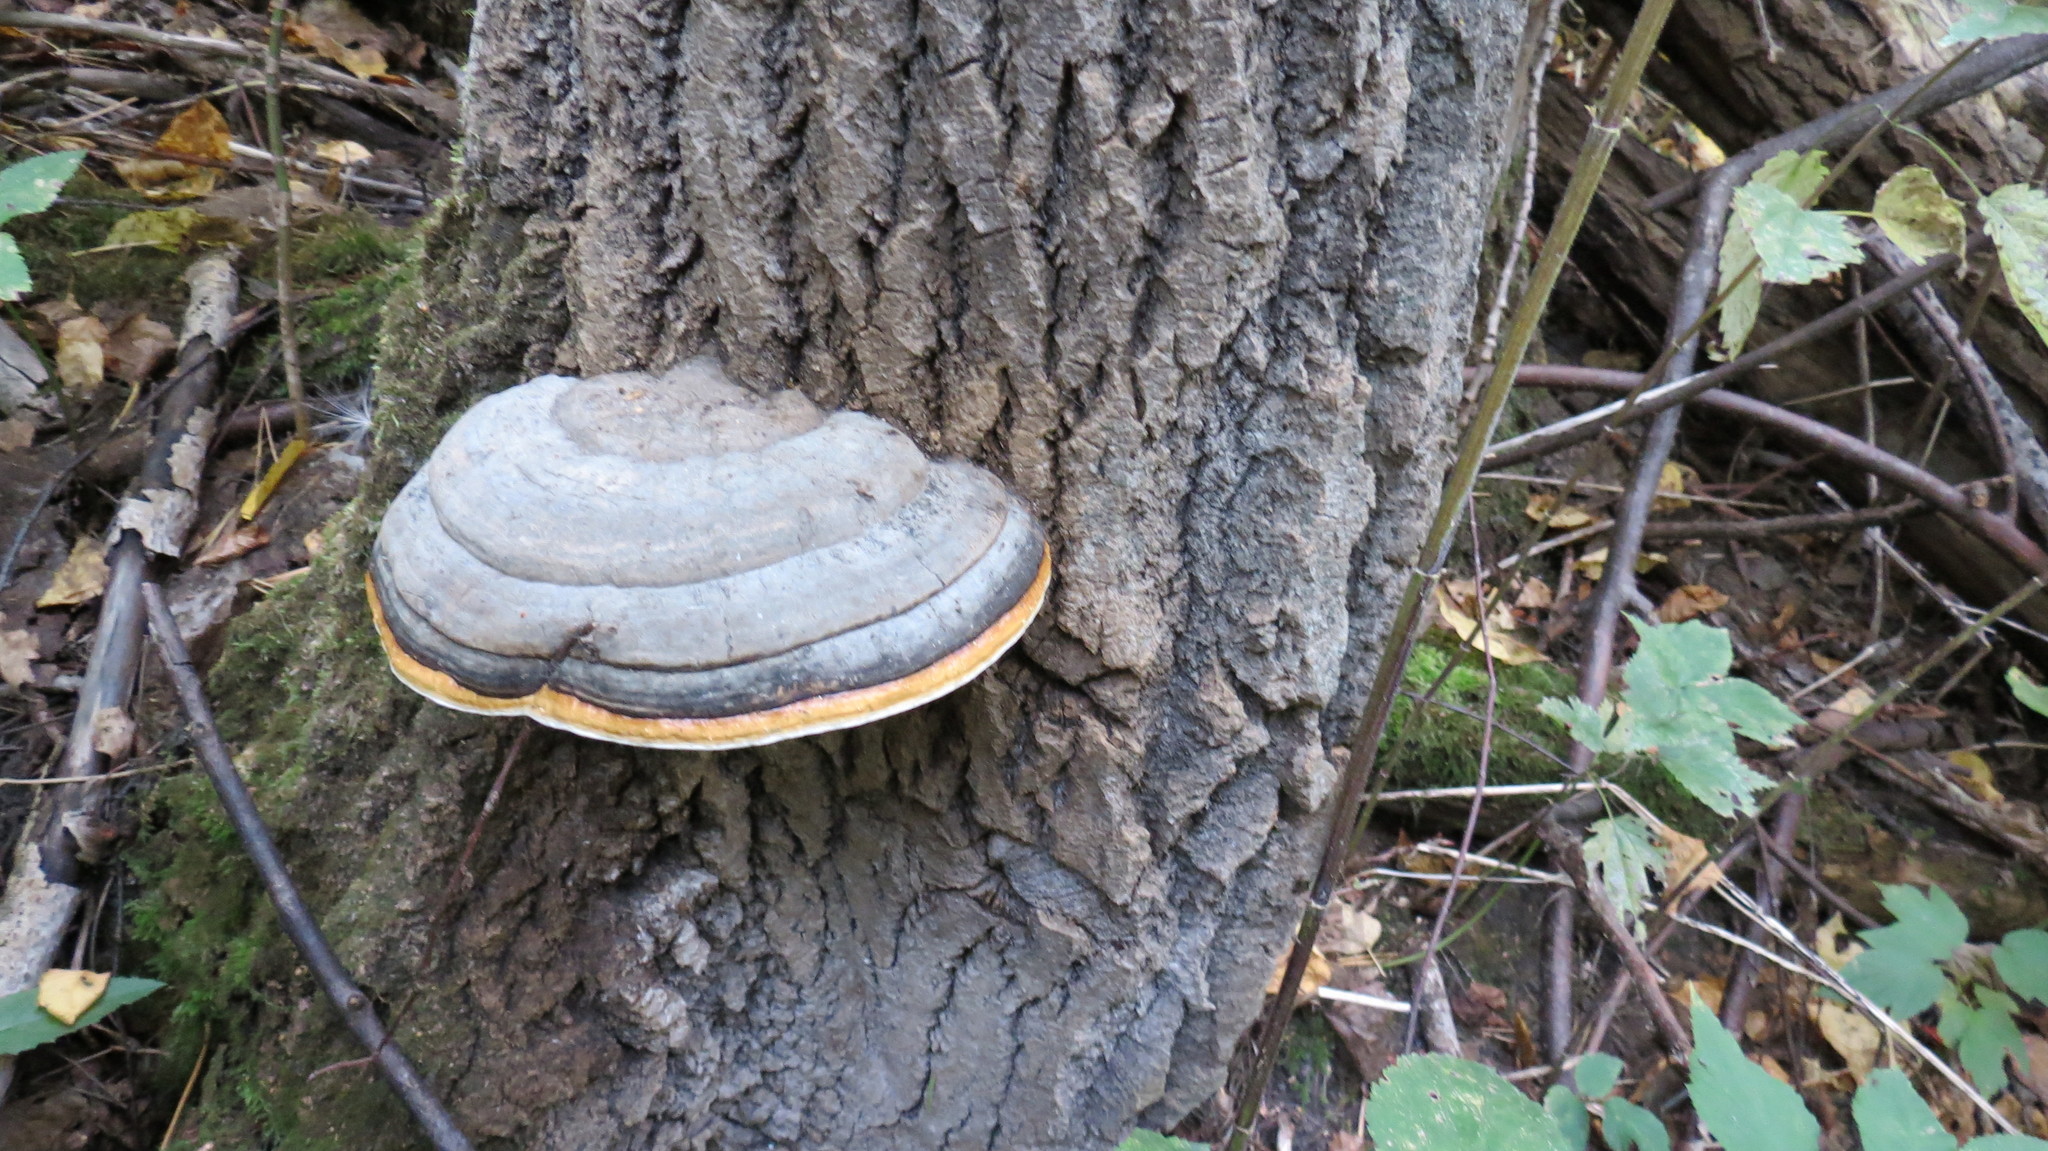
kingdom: Fungi
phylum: Basidiomycota
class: Agaricomycetes
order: Polyporales
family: Fomitopsidaceae
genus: Fomitopsis
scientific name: Fomitopsis pinicola
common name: Red-belted bracket
